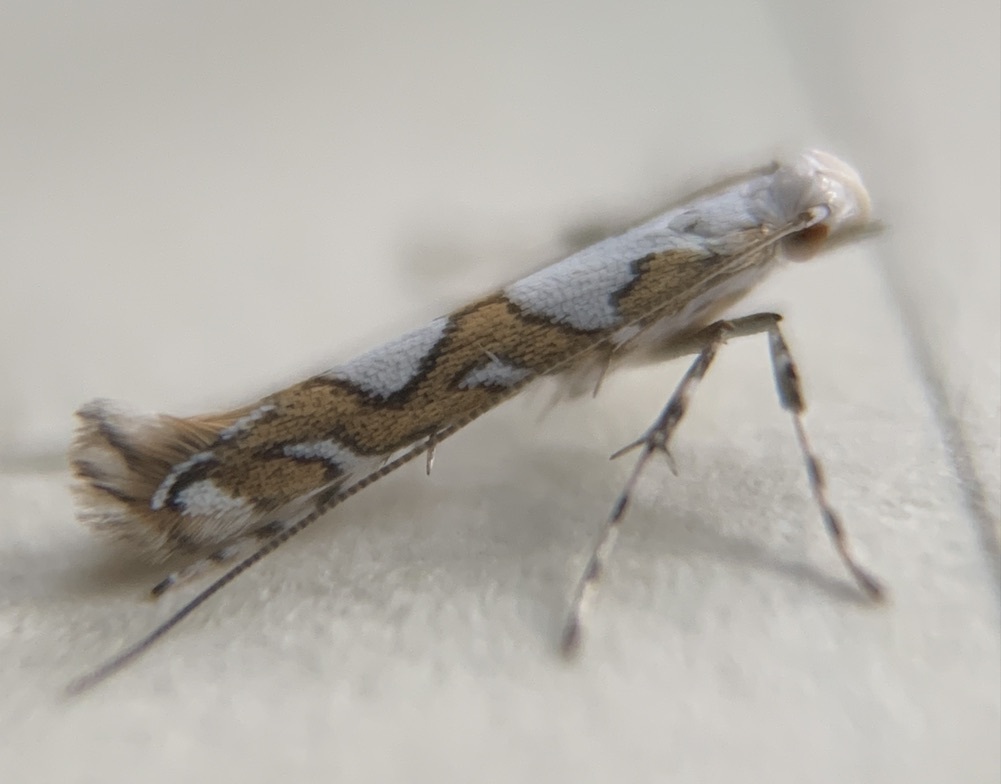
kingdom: Animalia
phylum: Arthropoda
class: Insecta
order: Lepidoptera
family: Gracillariidae
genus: Acrocercops
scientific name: Acrocercops albinatella
